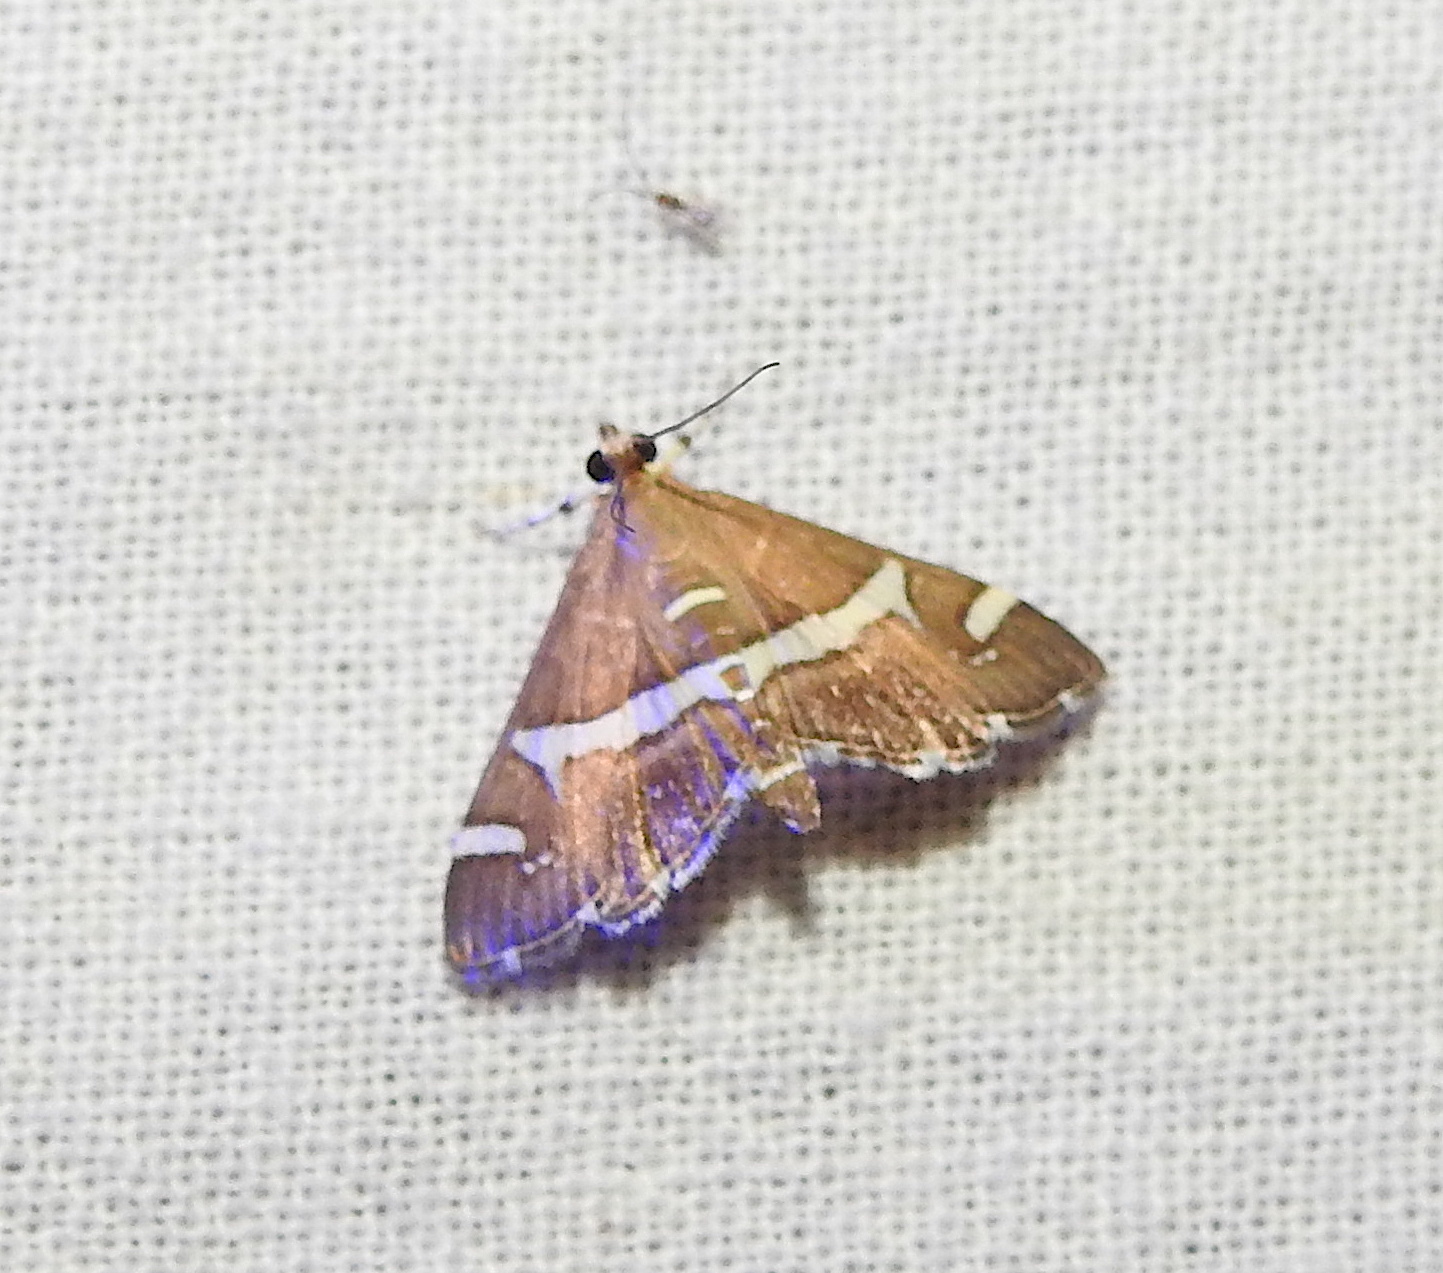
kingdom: Animalia
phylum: Arthropoda
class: Insecta
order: Lepidoptera
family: Crambidae
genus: Spoladea
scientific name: Spoladea recurvalis
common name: Beet webworm moth
